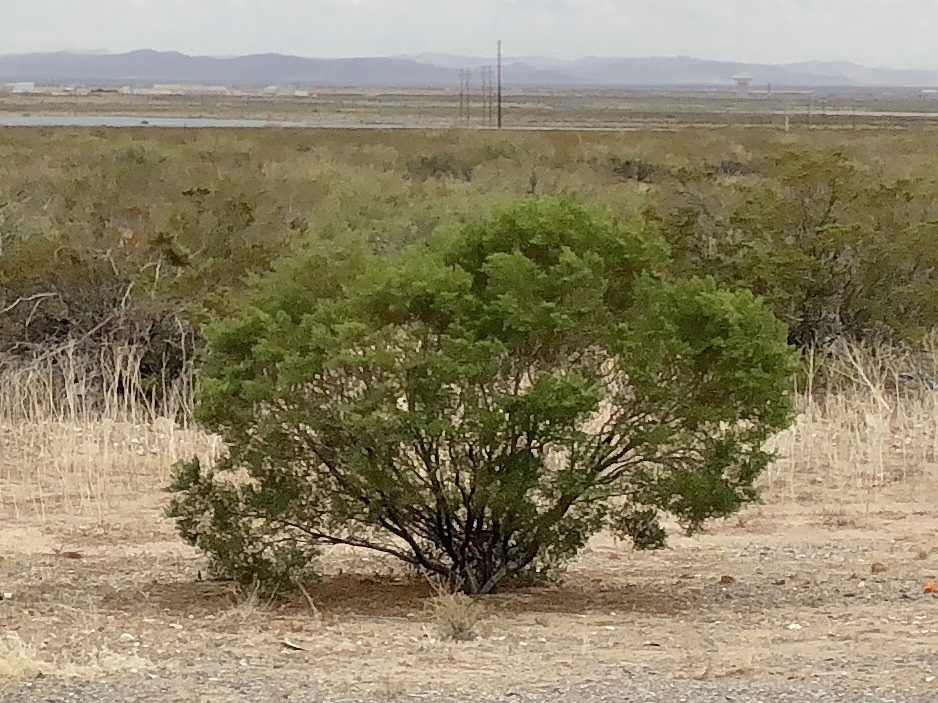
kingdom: Plantae
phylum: Tracheophyta
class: Magnoliopsida
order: Zygophyllales
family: Zygophyllaceae
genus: Larrea
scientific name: Larrea tridentata
